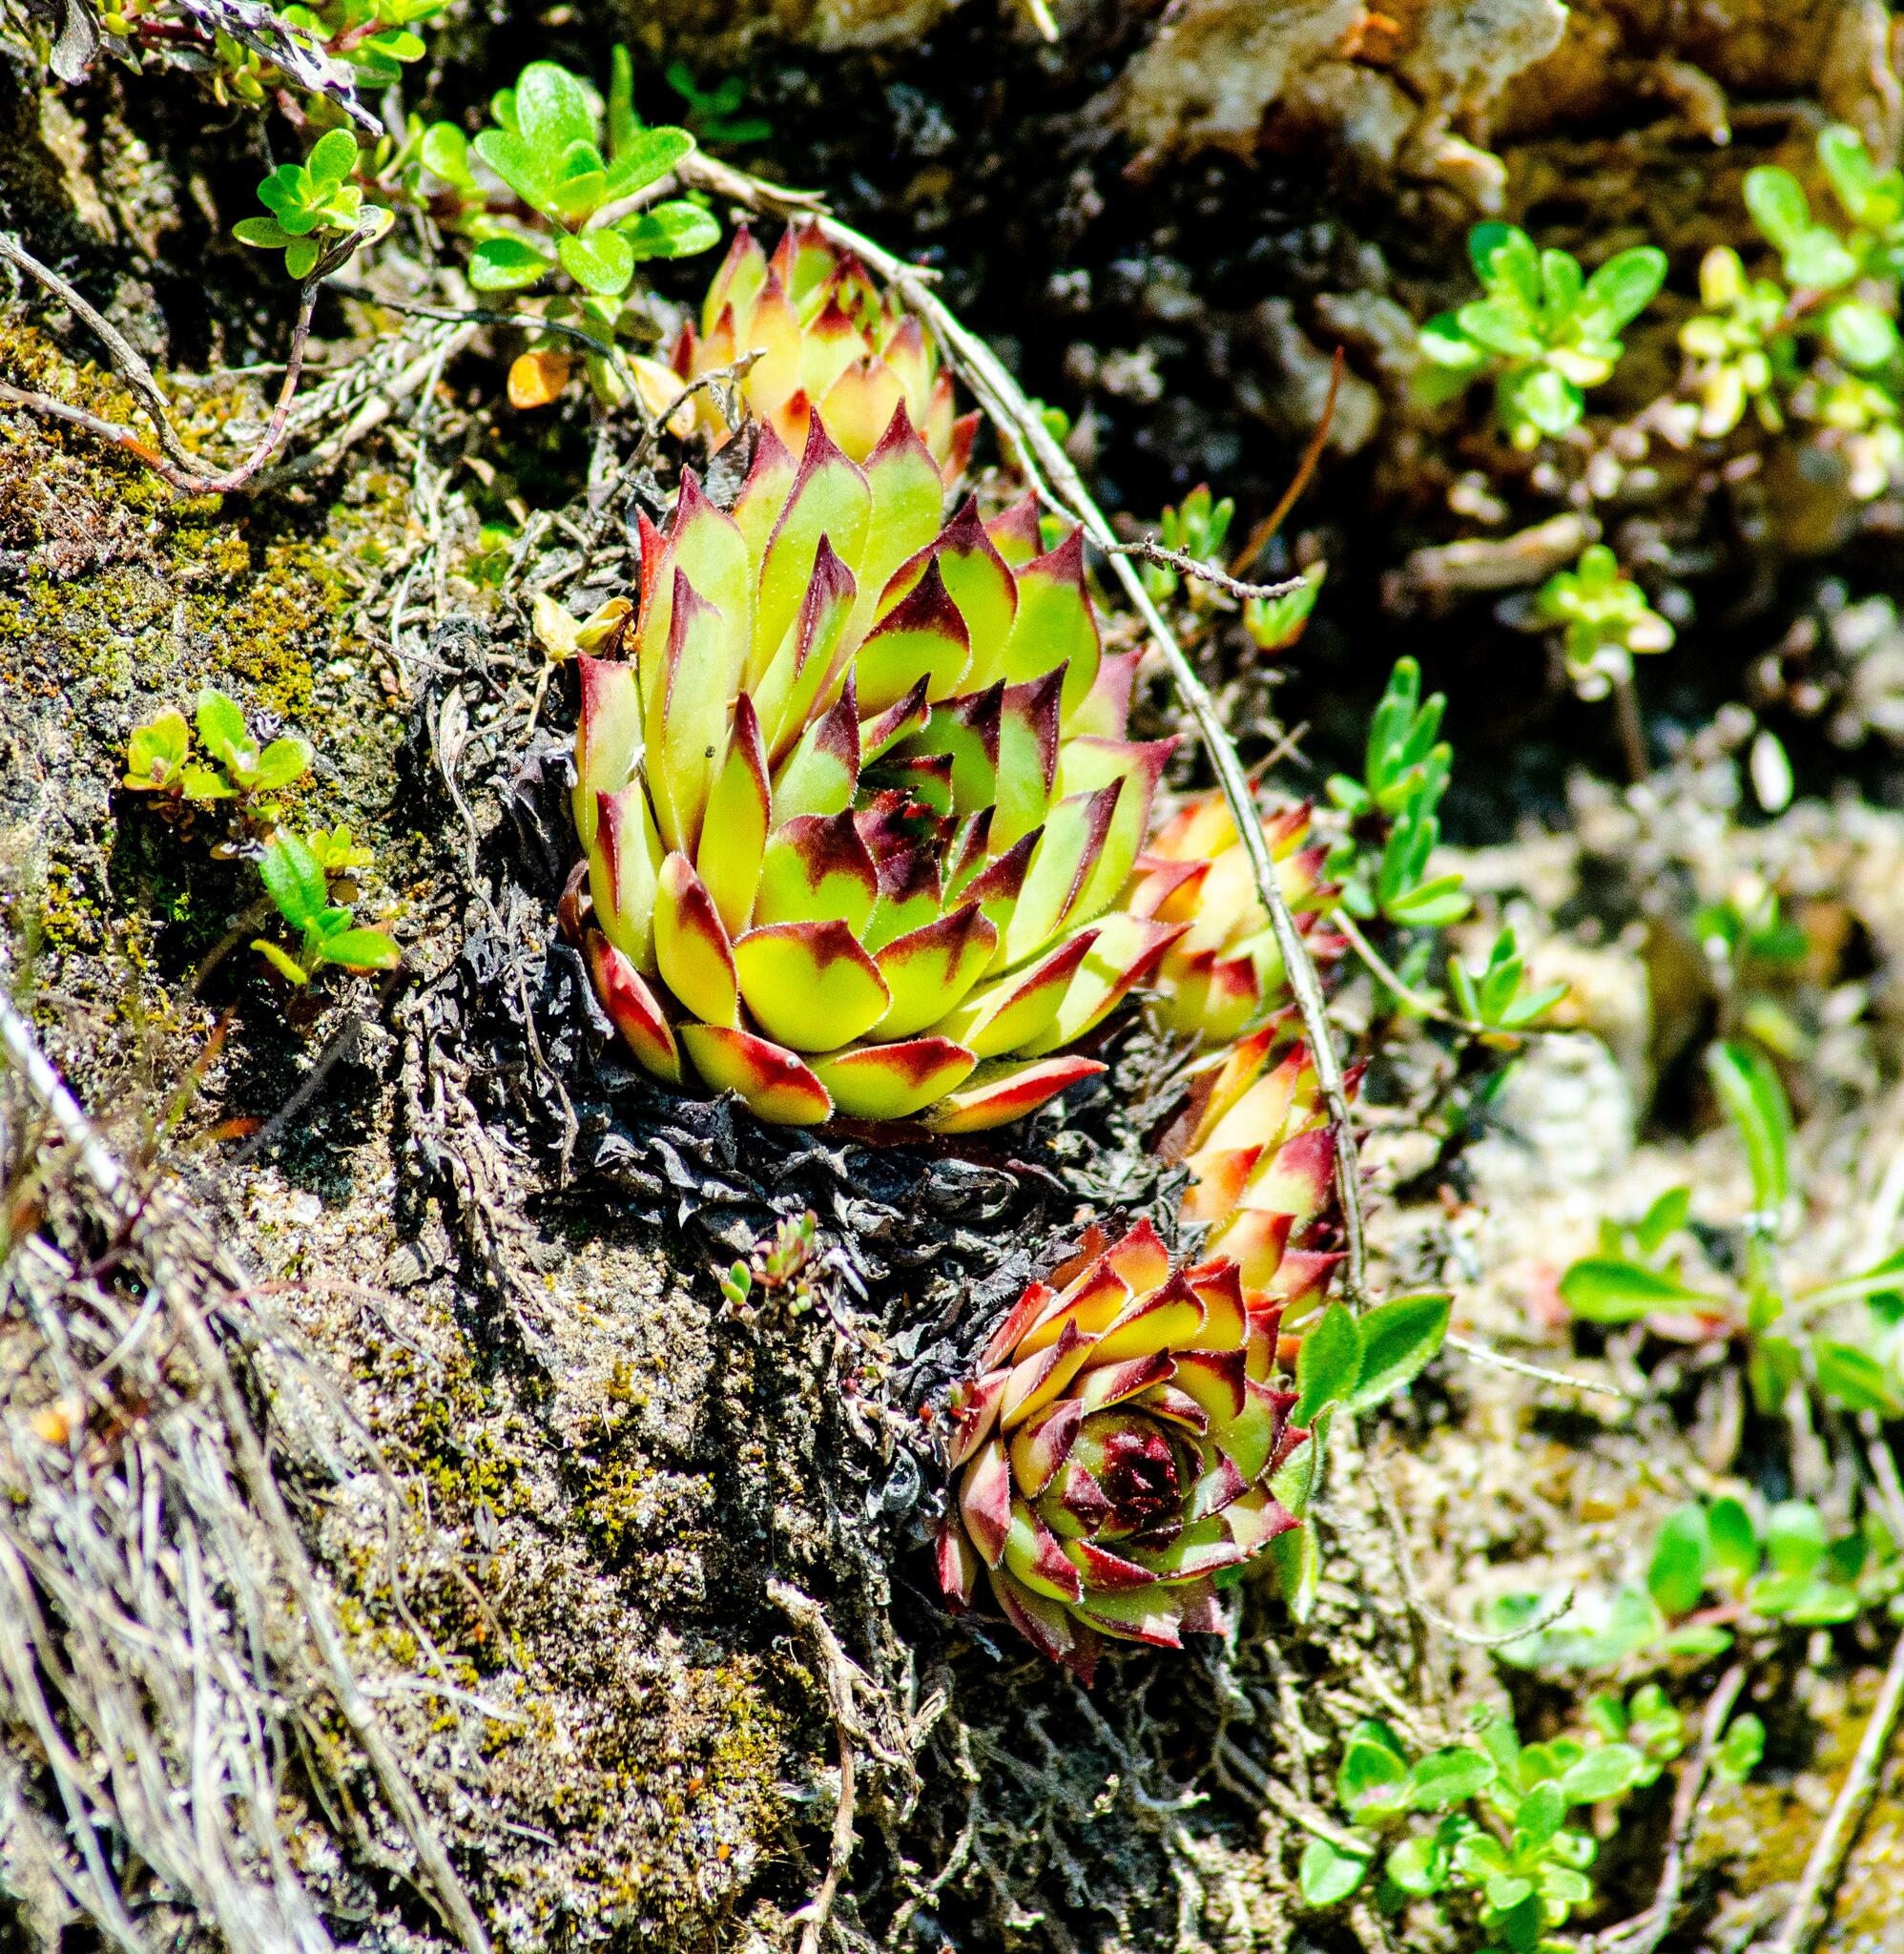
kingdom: Plantae
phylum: Tracheophyta
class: Magnoliopsida
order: Saxifragales
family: Crassulaceae
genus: Sempervivum
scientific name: Sempervivum tectorum
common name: House-leek
